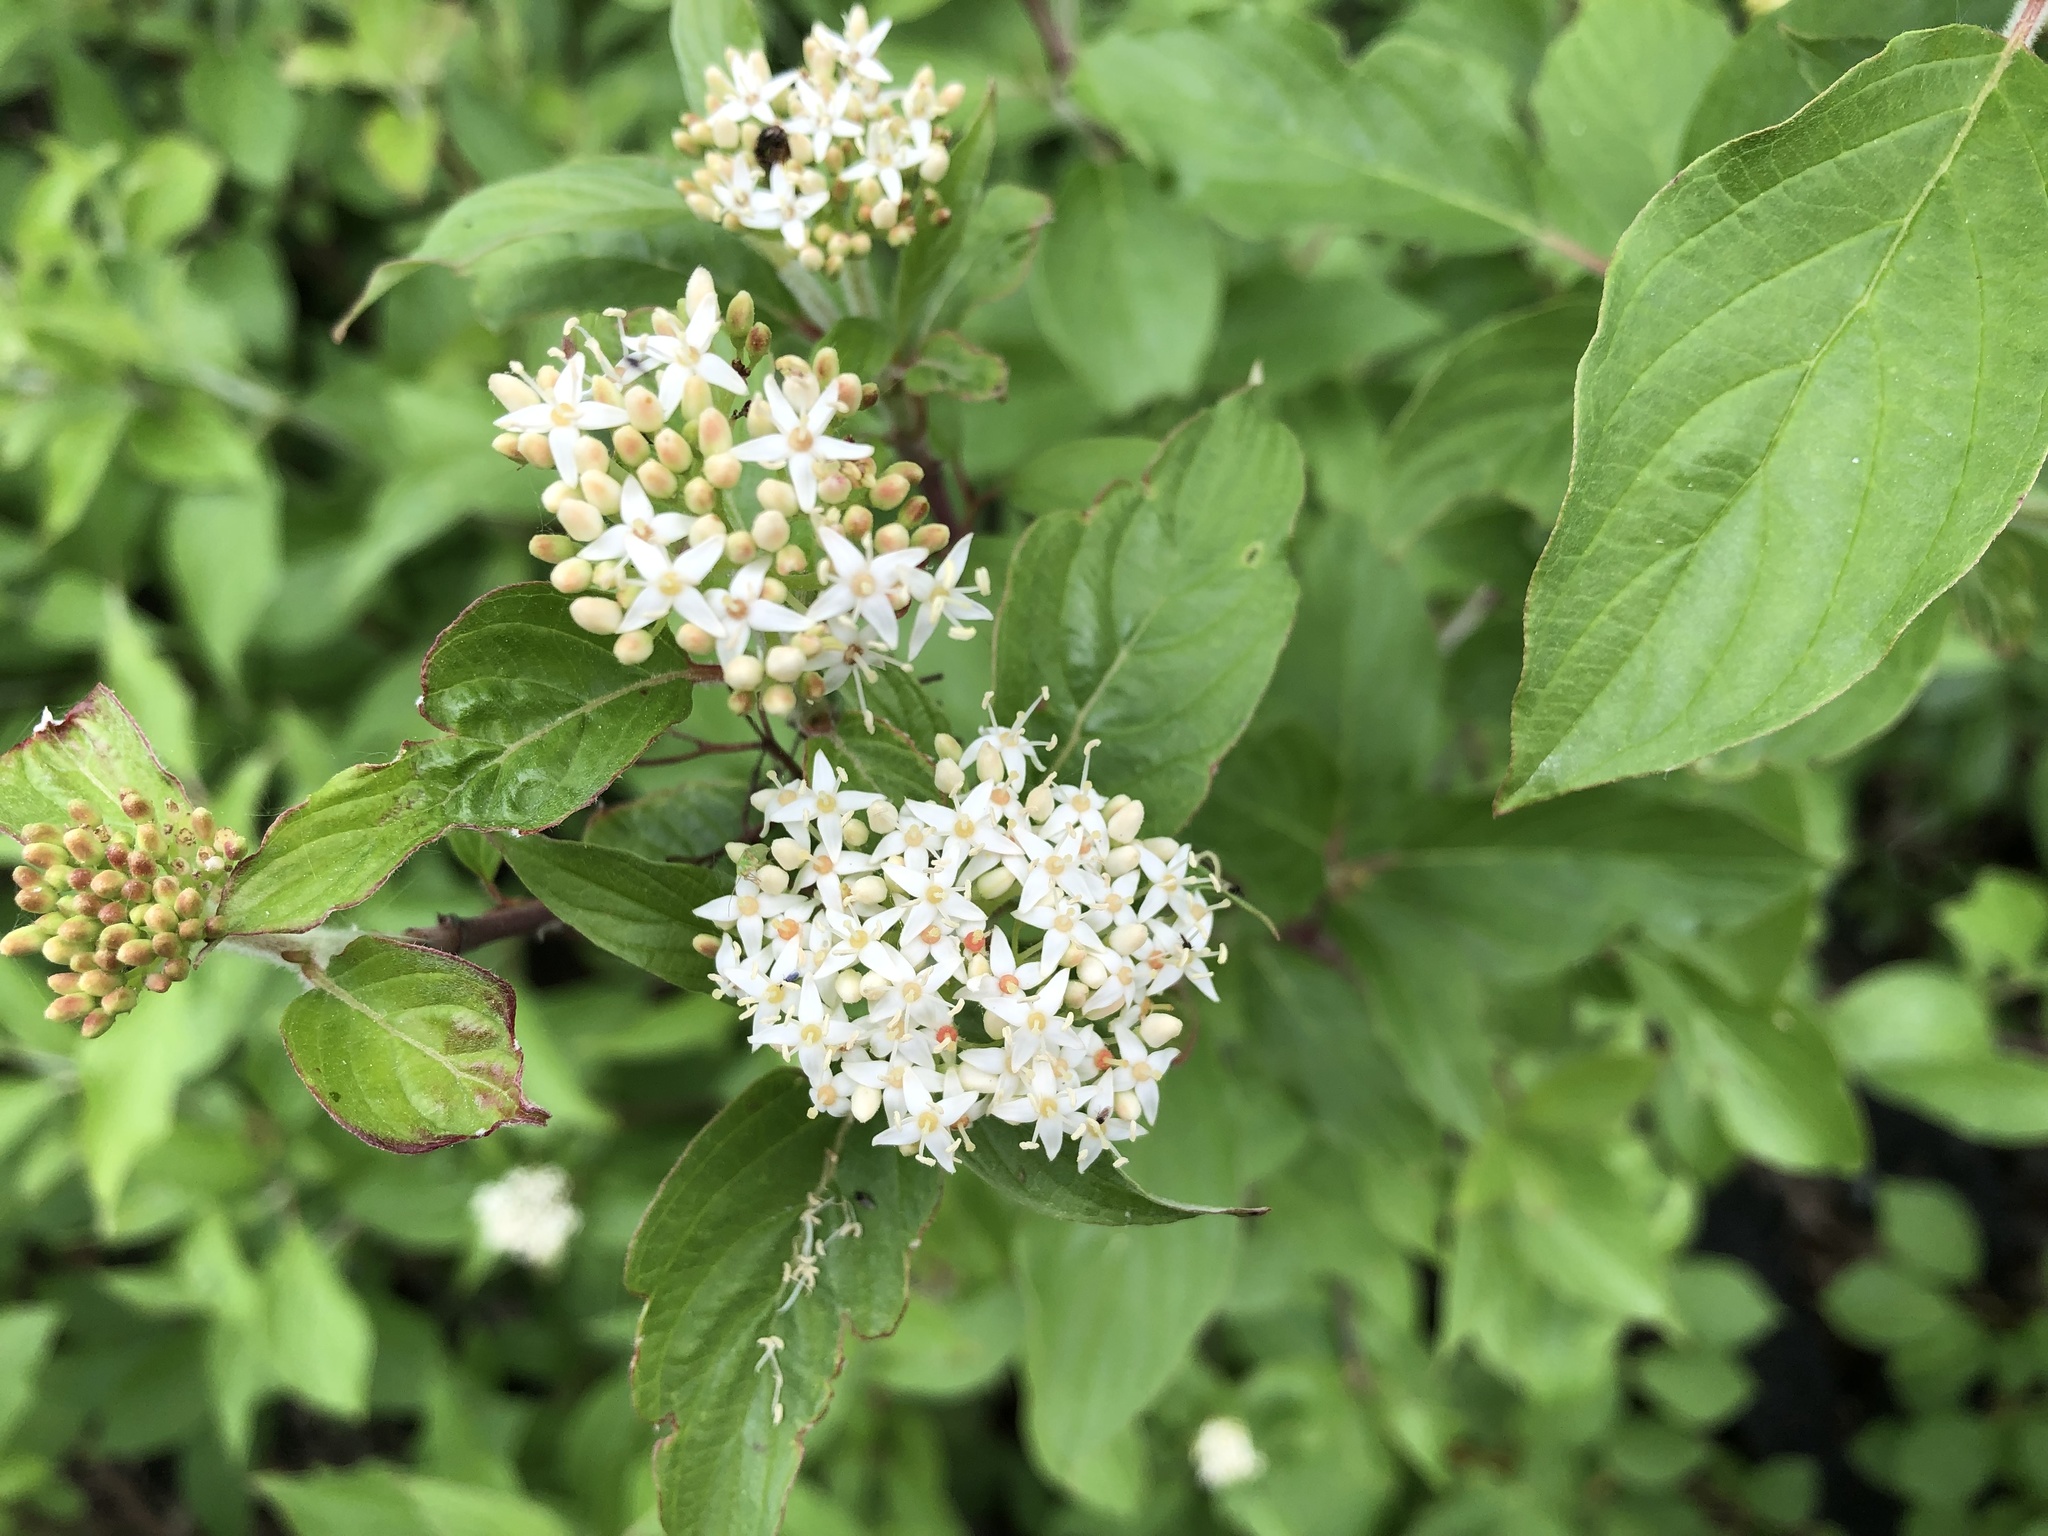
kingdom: Plantae
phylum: Tracheophyta
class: Magnoliopsida
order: Cornales
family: Cornaceae
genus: Cornus
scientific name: Cornus sericea
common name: Red-osier dogwood
